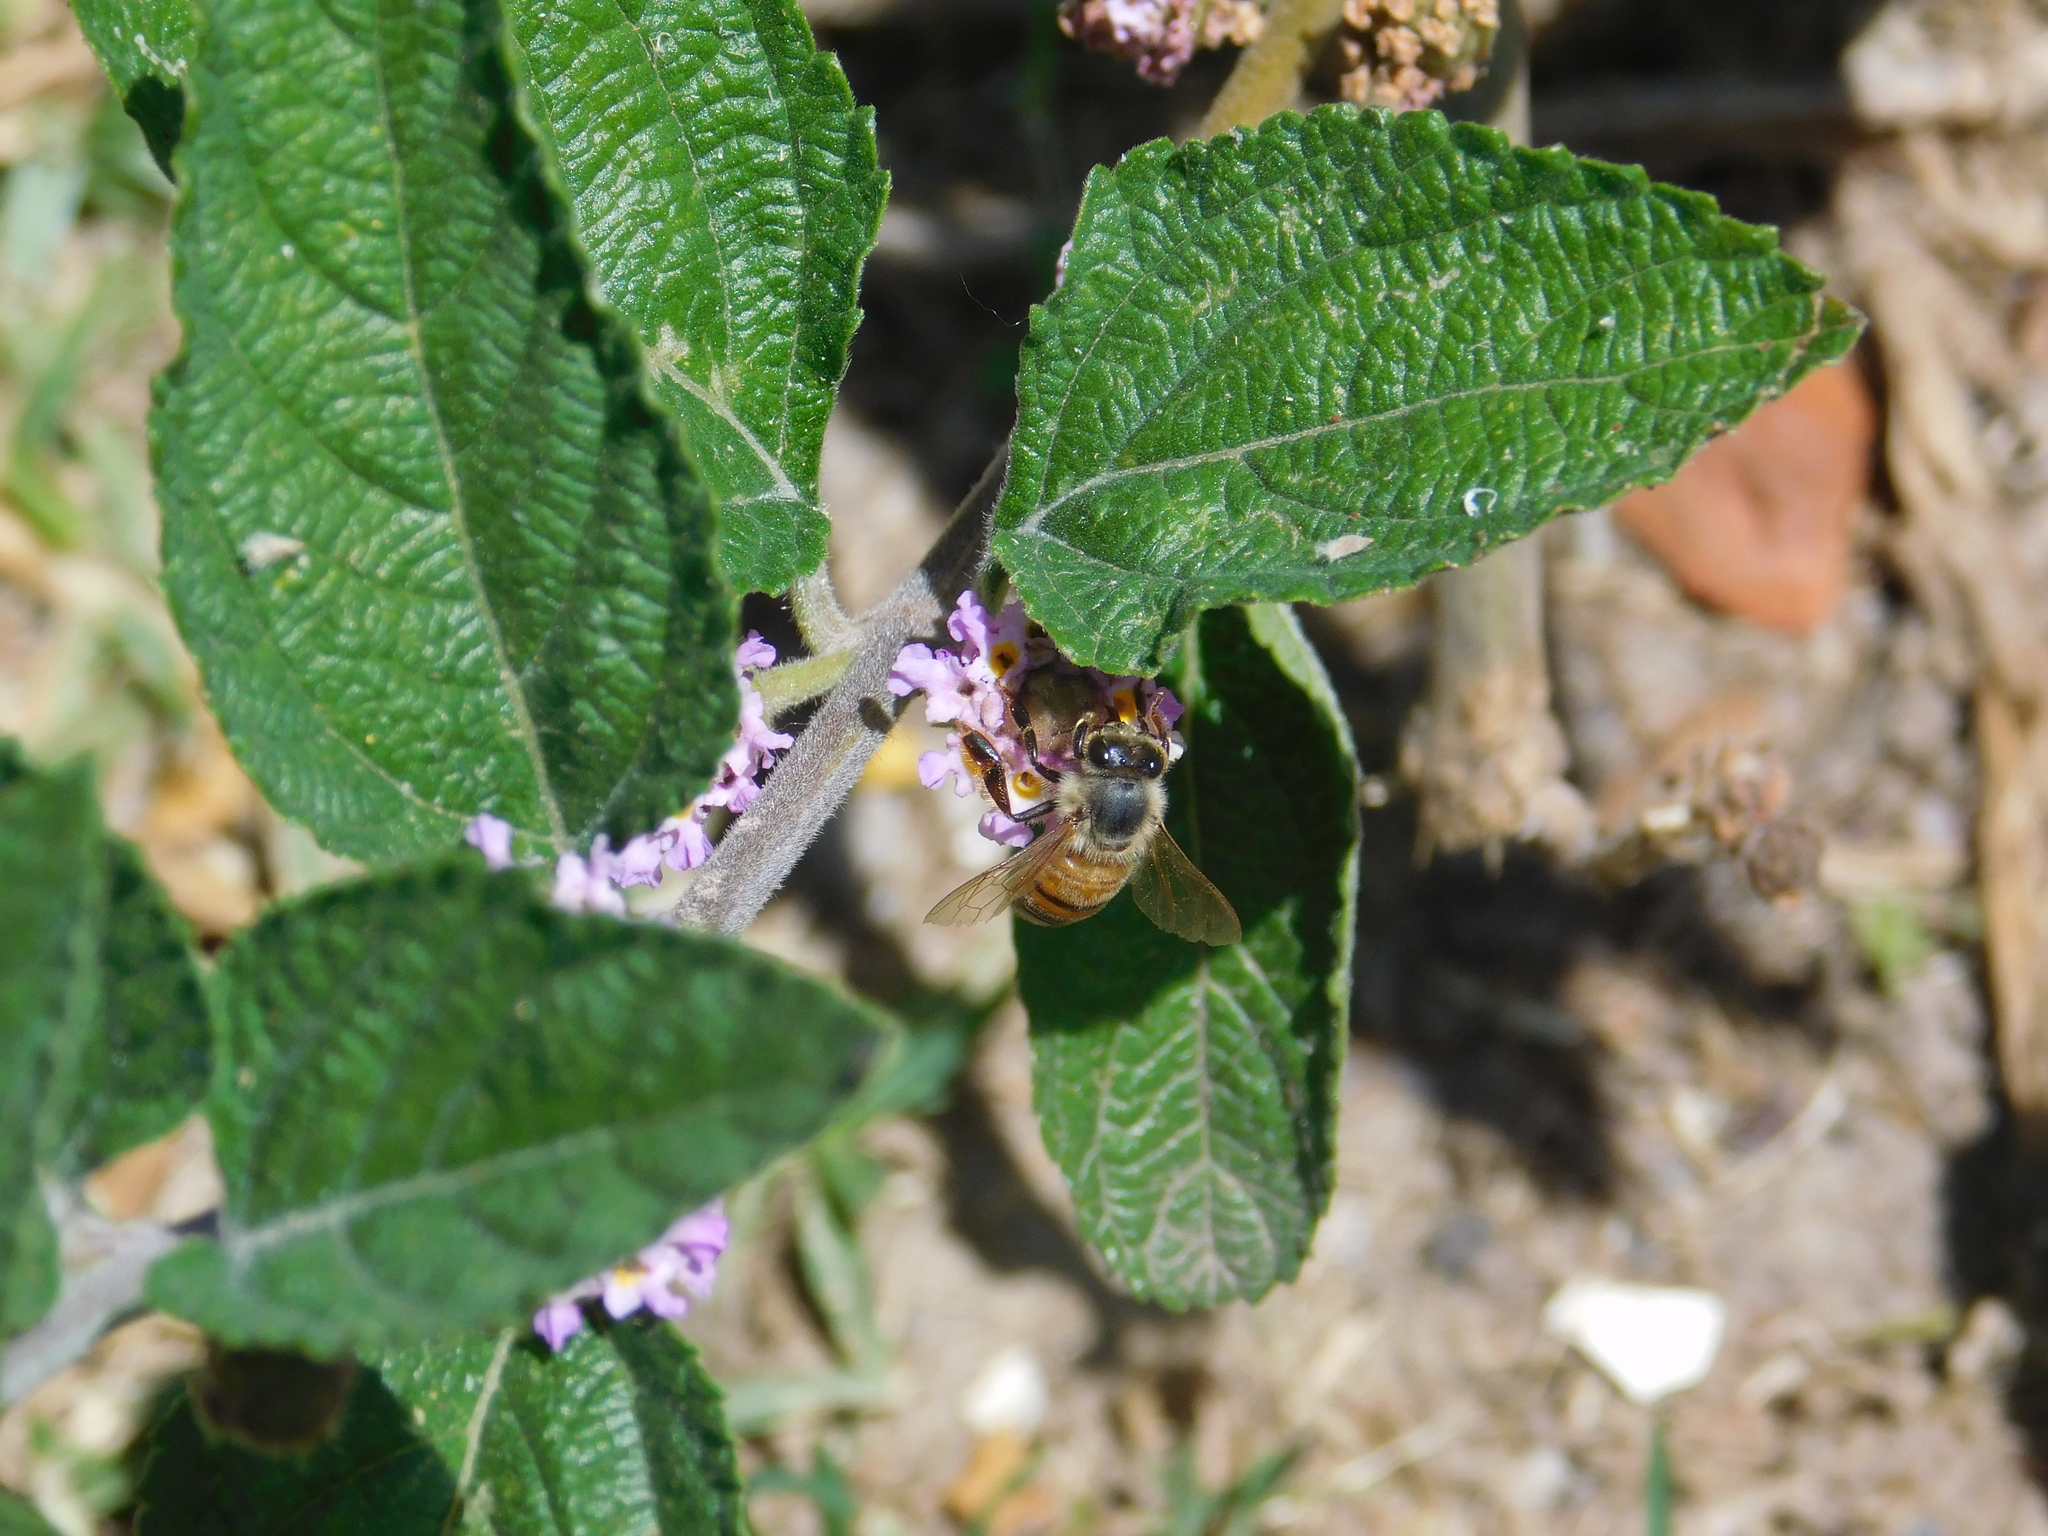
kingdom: Animalia
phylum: Arthropoda
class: Insecta
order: Hymenoptera
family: Apidae
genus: Apis
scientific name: Apis mellifera
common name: Honey bee
